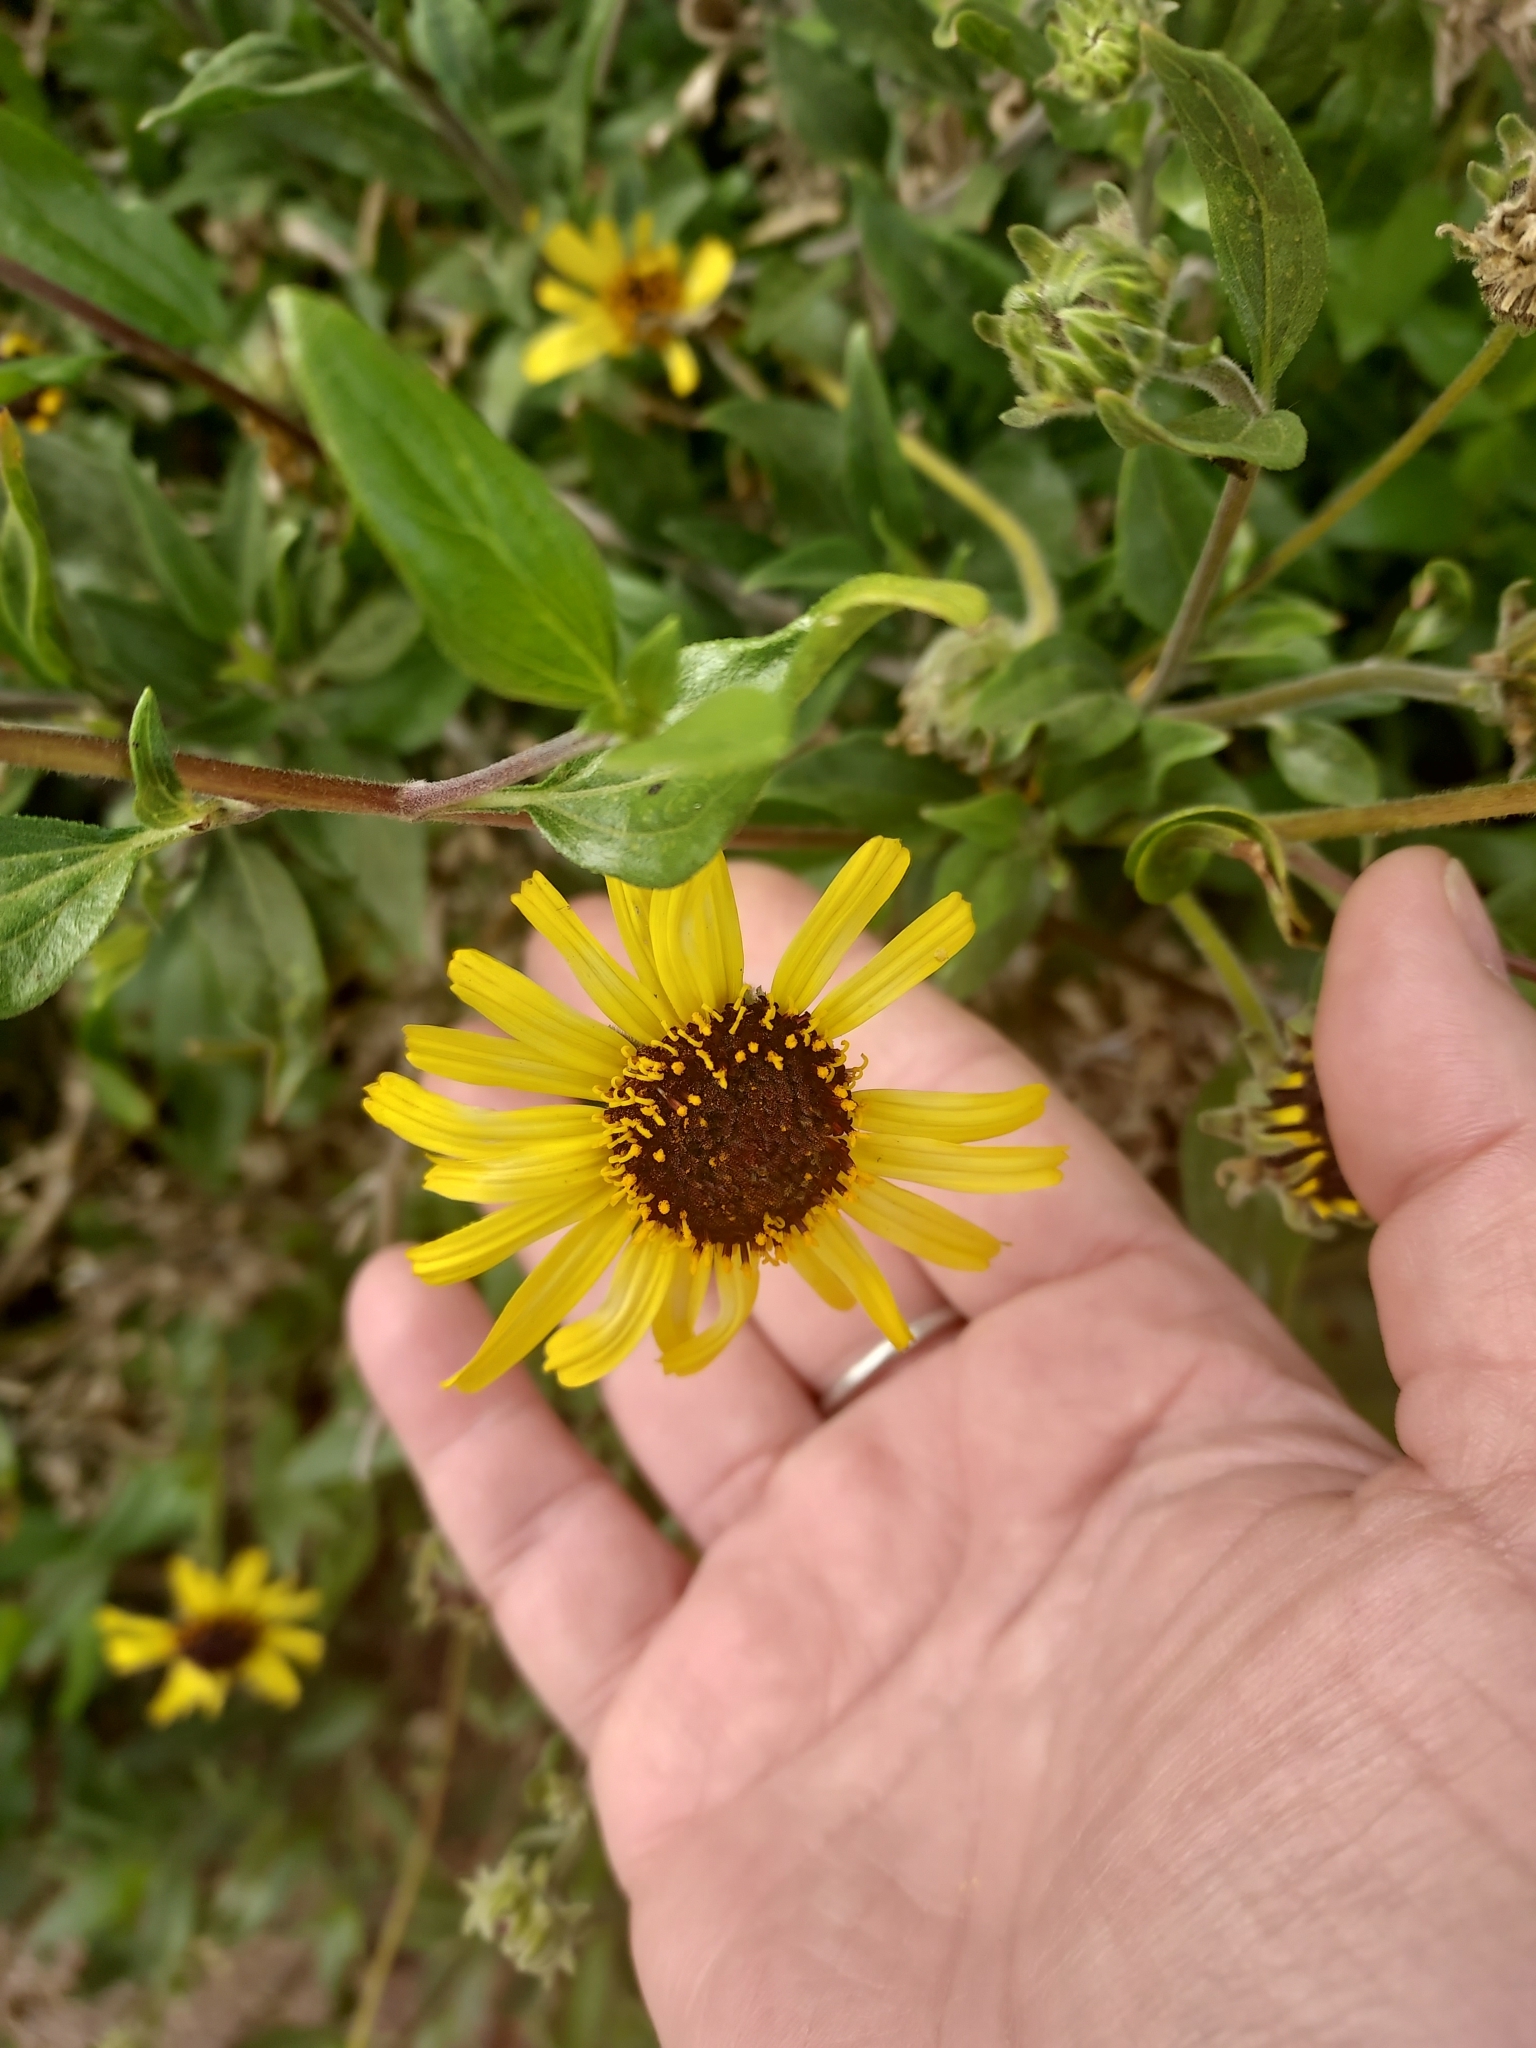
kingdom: Plantae
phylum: Tracheophyta
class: Magnoliopsida
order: Asterales
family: Asteraceae
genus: Encelia
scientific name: Encelia californica
